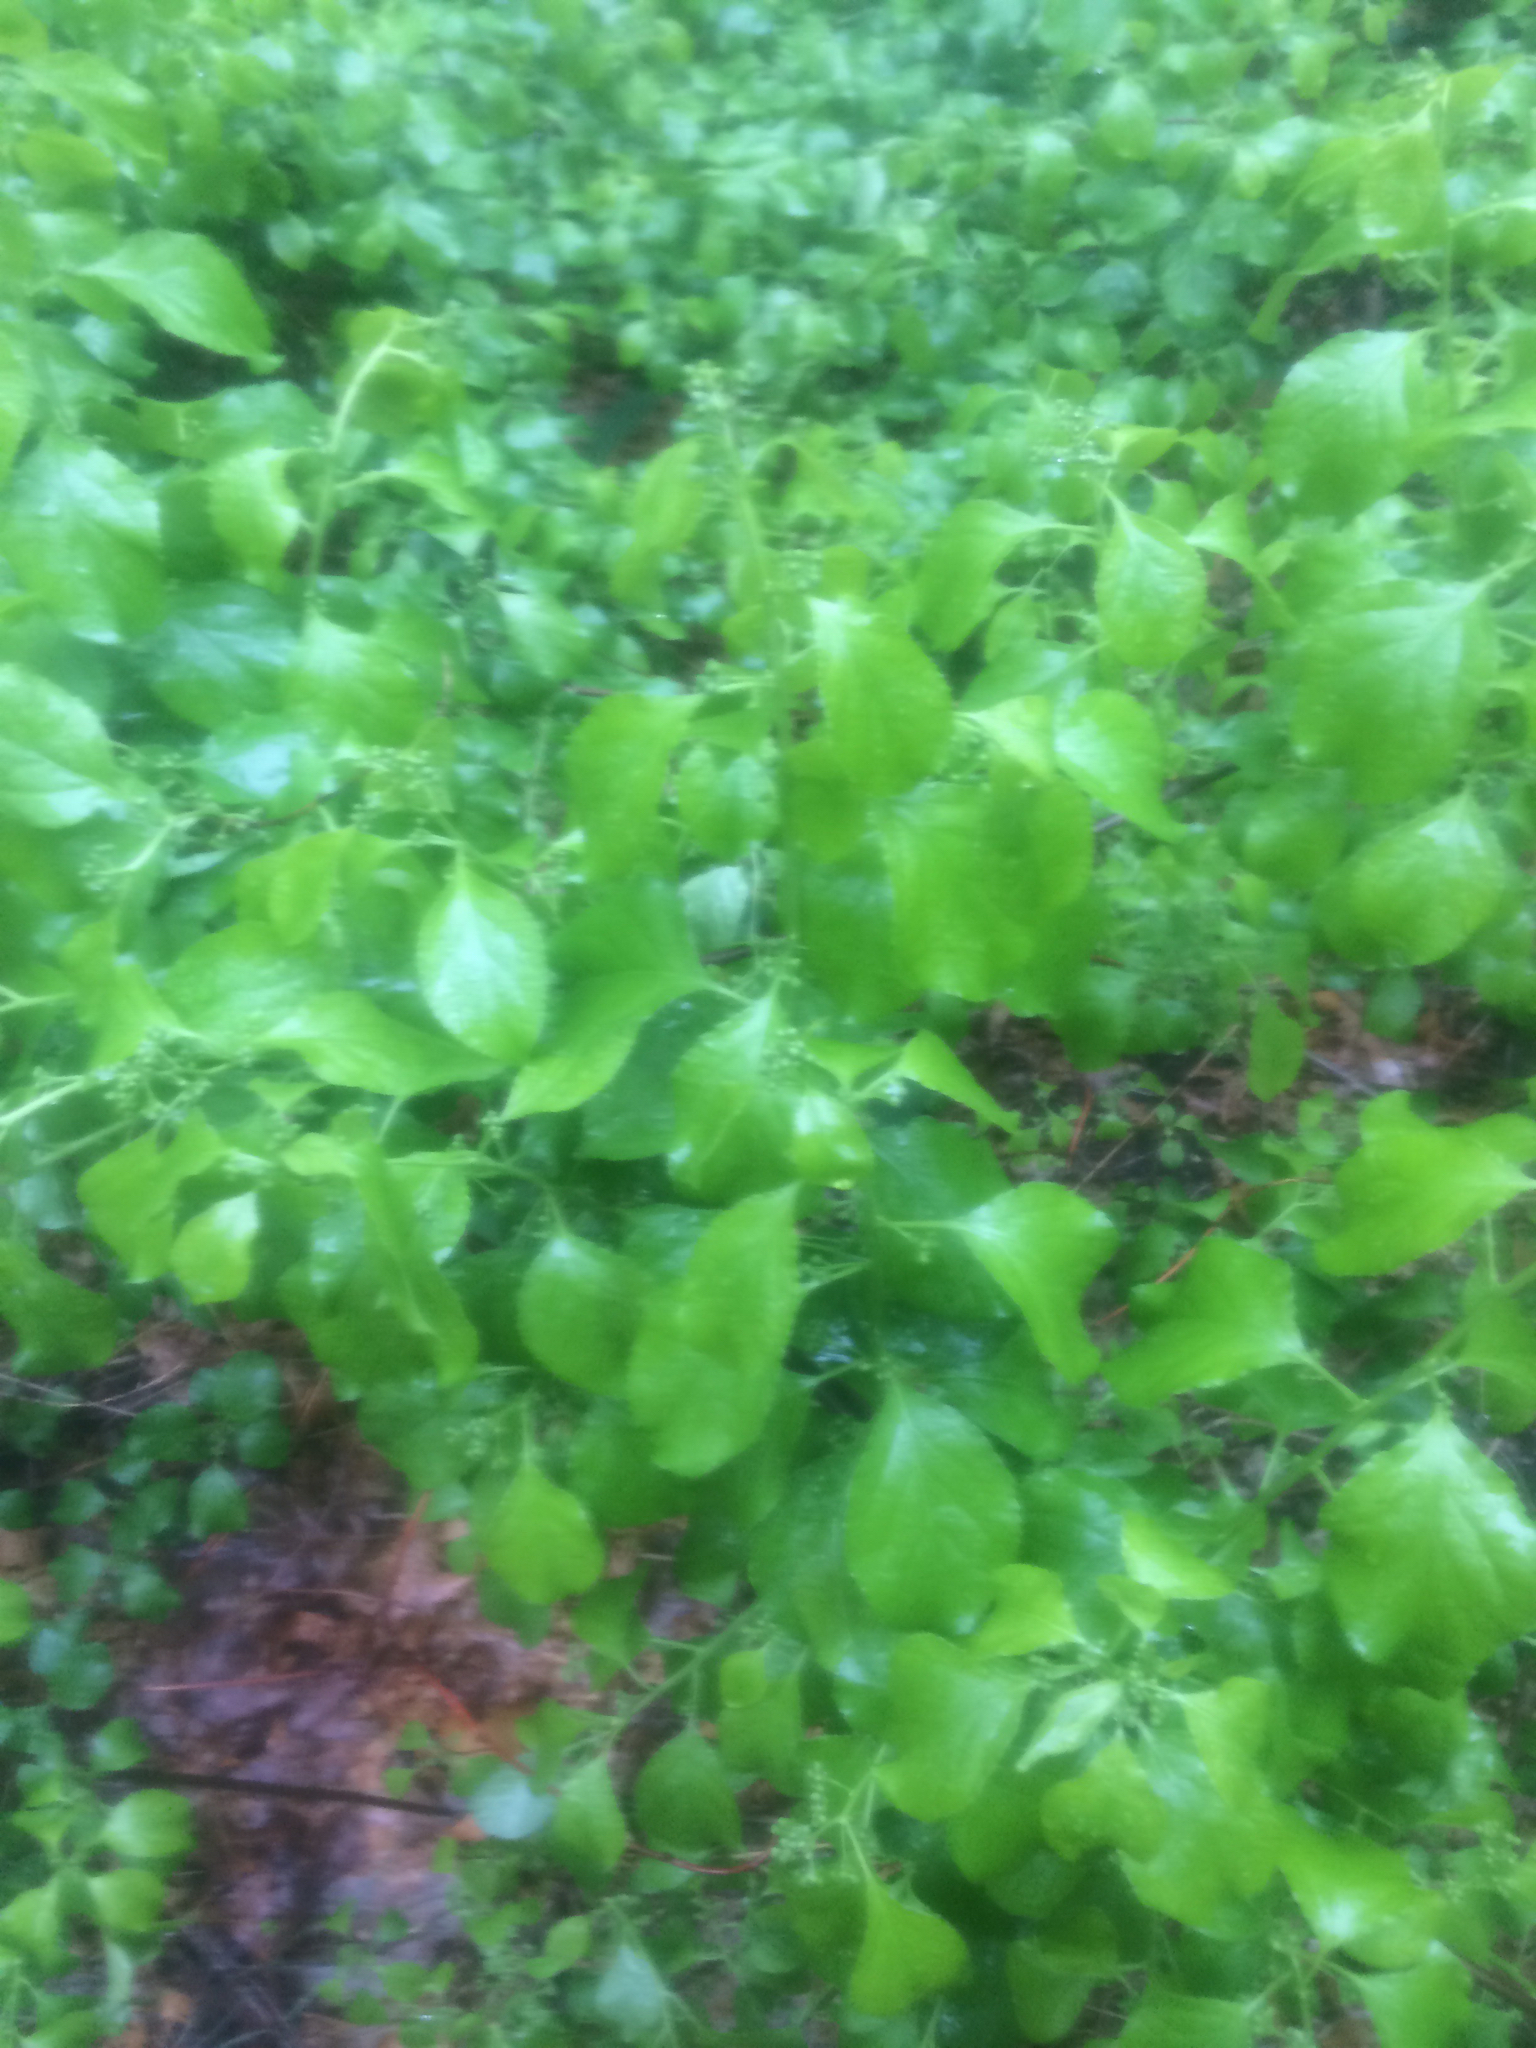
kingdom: Plantae
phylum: Tracheophyta
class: Magnoliopsida
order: Celastrales
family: Celastraceae
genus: Celastrus
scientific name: Celastrus orbiculatus
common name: Oriental bittersweet
